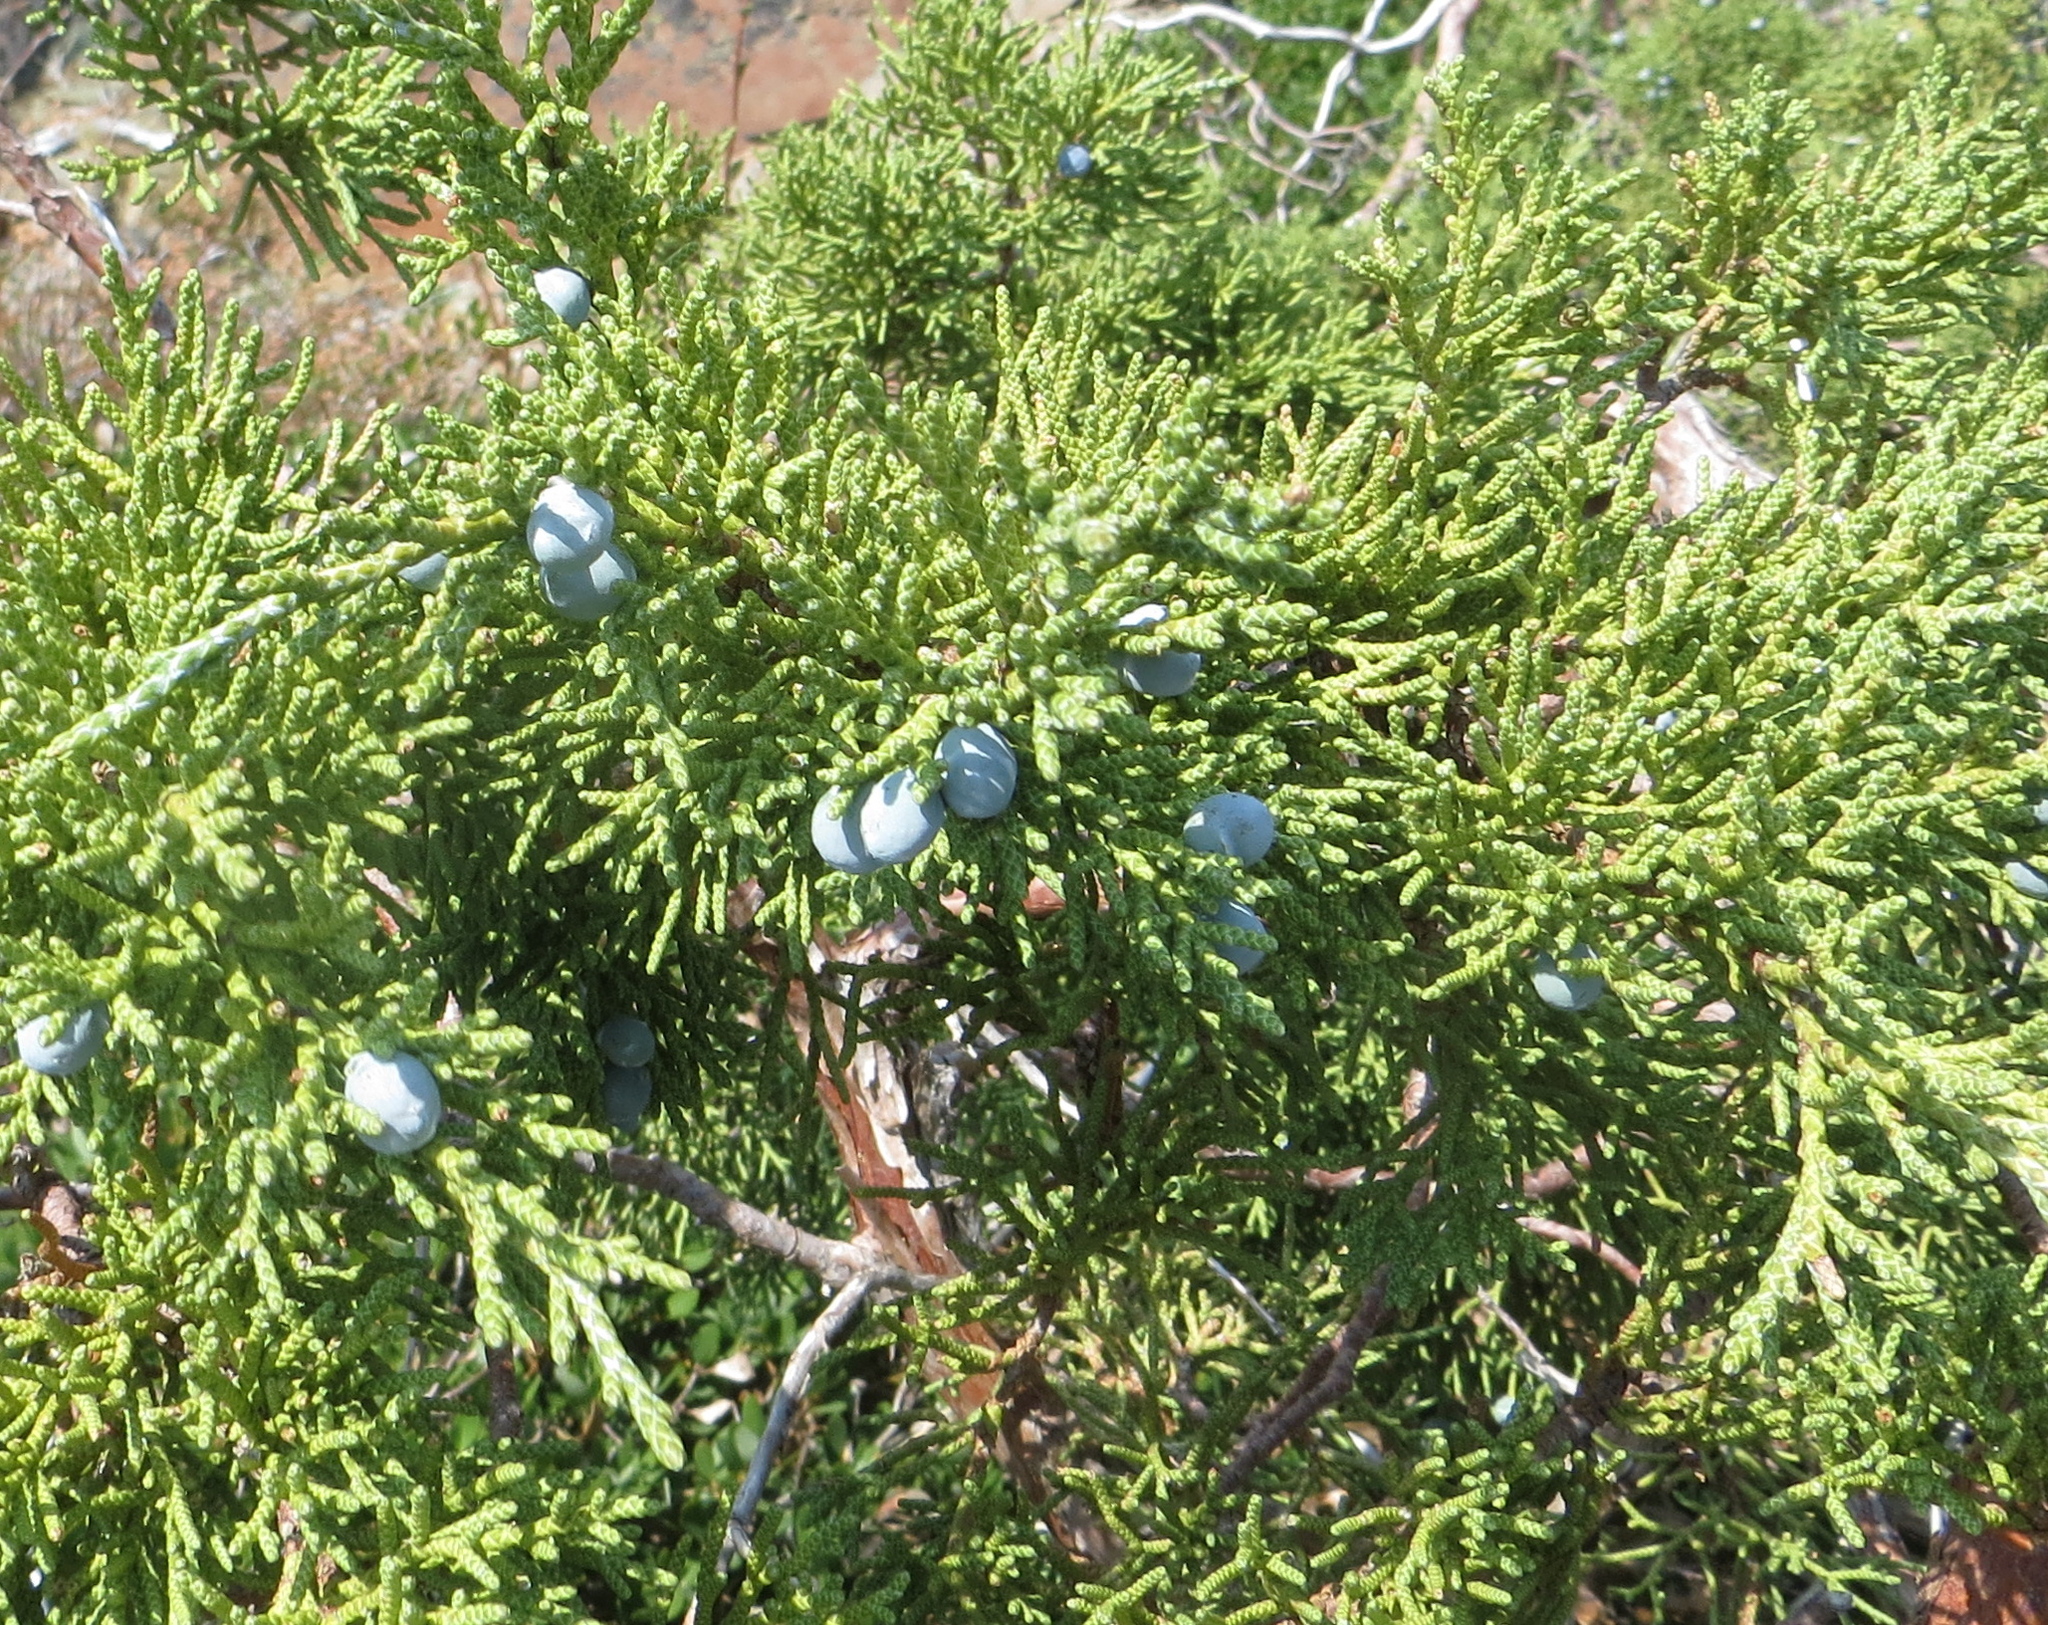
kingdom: Plantae
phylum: Tracheophyta
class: Pinopsida
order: Pinales
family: Cupressaceae
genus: Juniperus
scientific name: Juniperus occidentalis
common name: Western juniper
